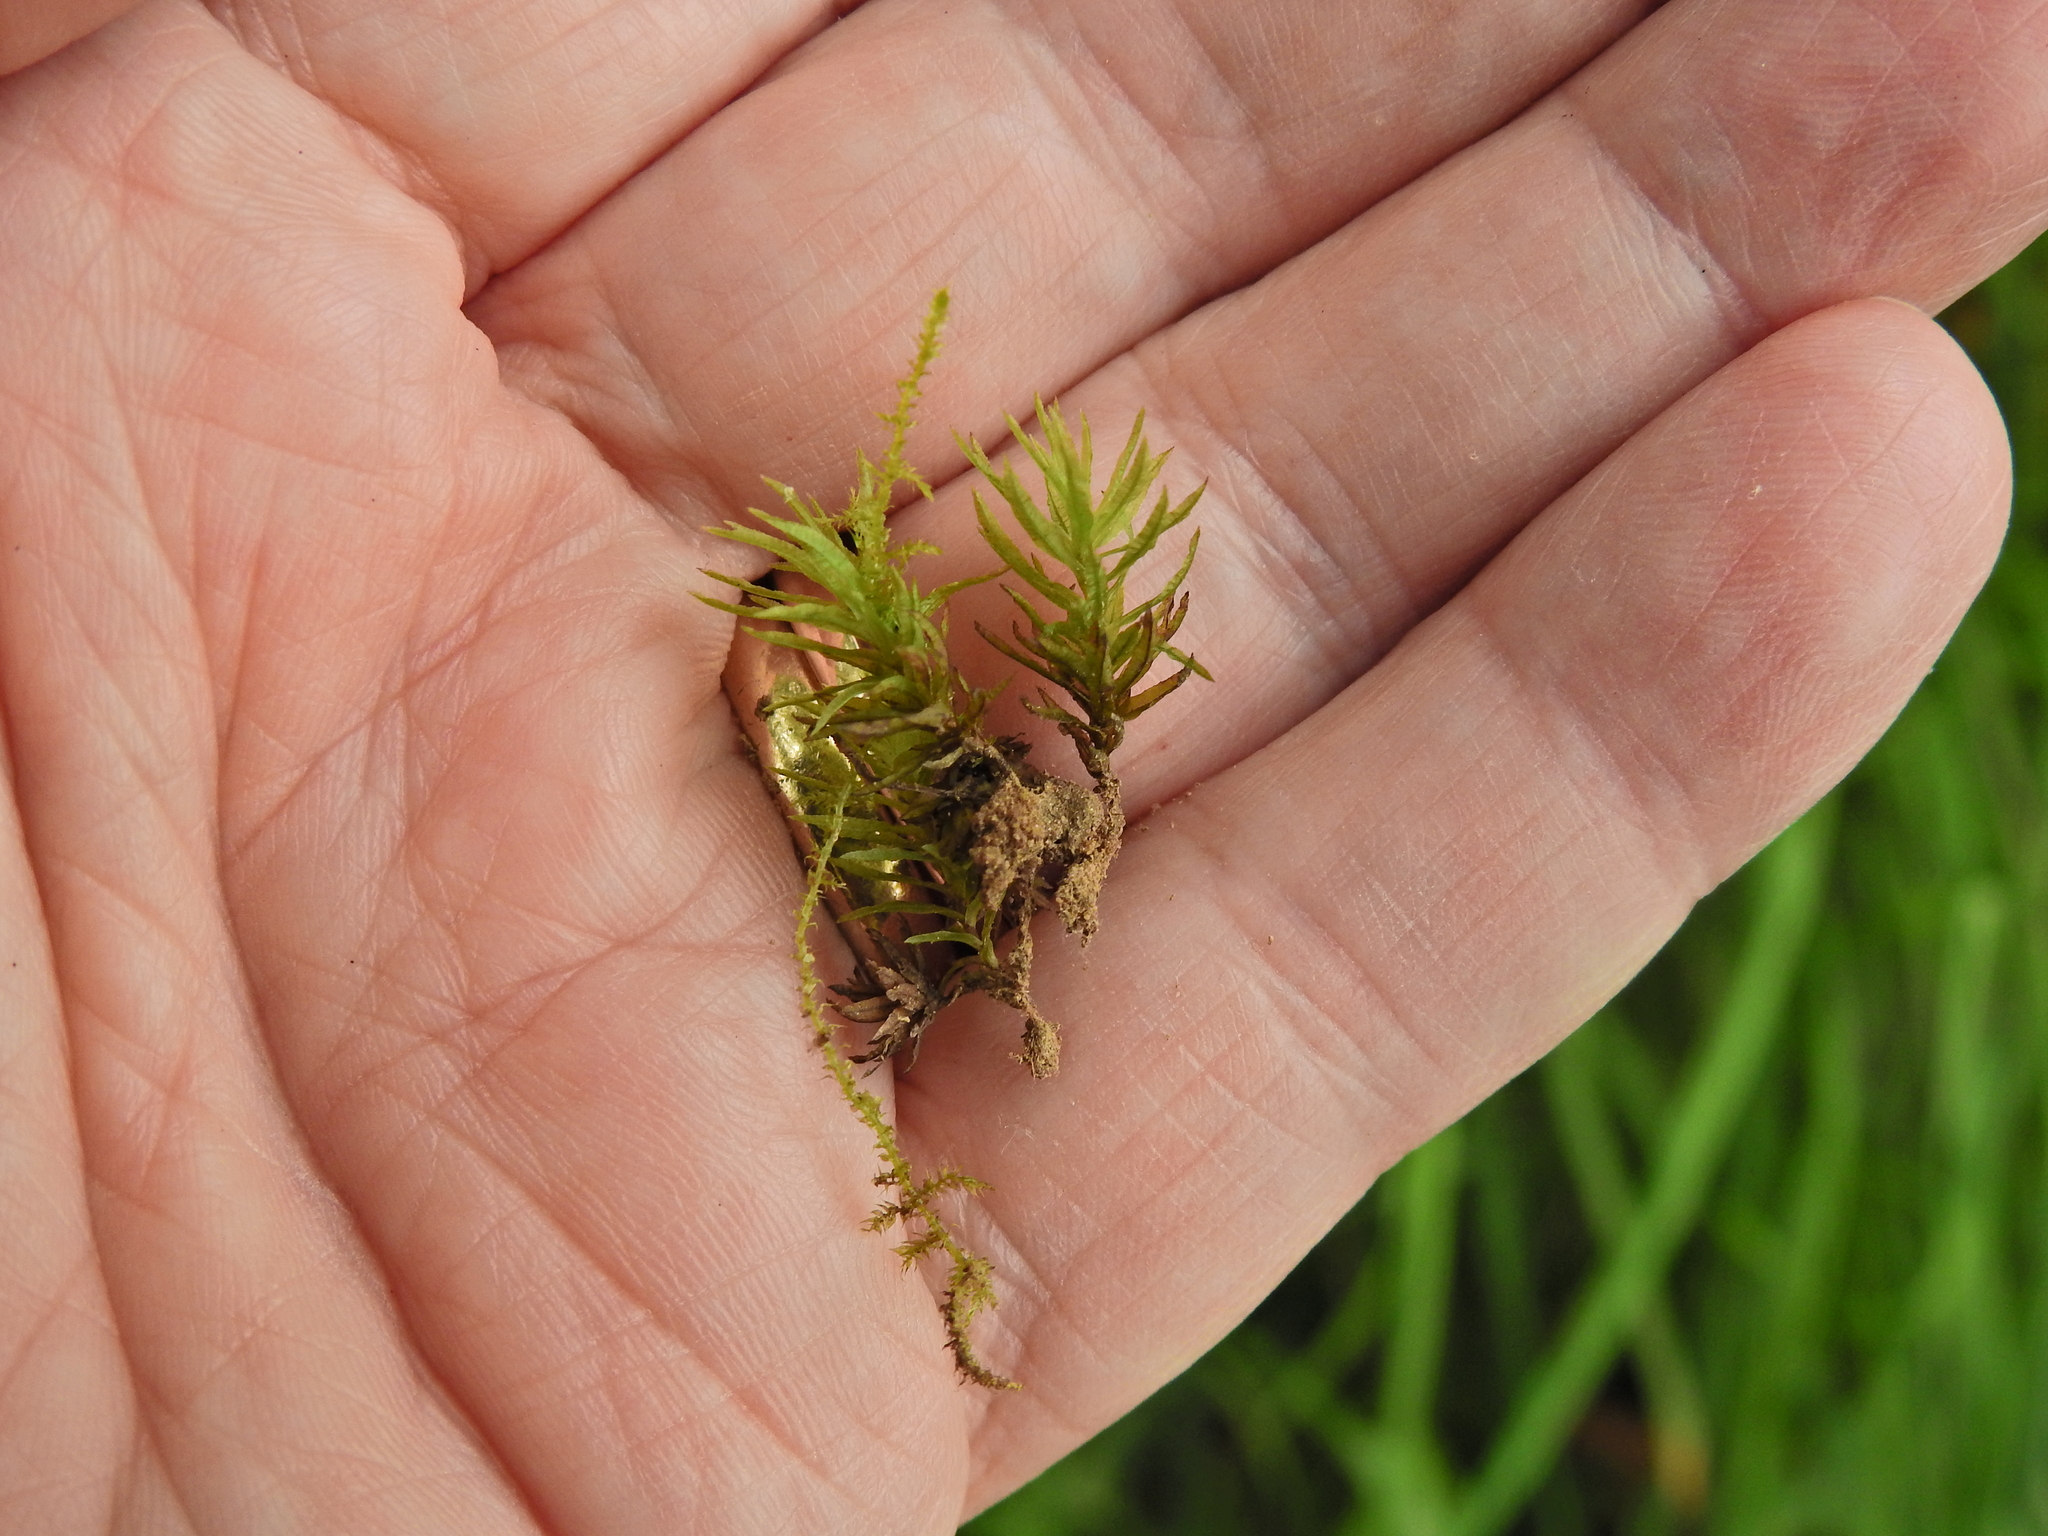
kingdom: Plantae
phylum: Bryophyta
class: Polytrichopsida
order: Polytrichales
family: Polytrichaceae
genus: Atrichum
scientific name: Atrichum undulatum
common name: Common smoothcap
